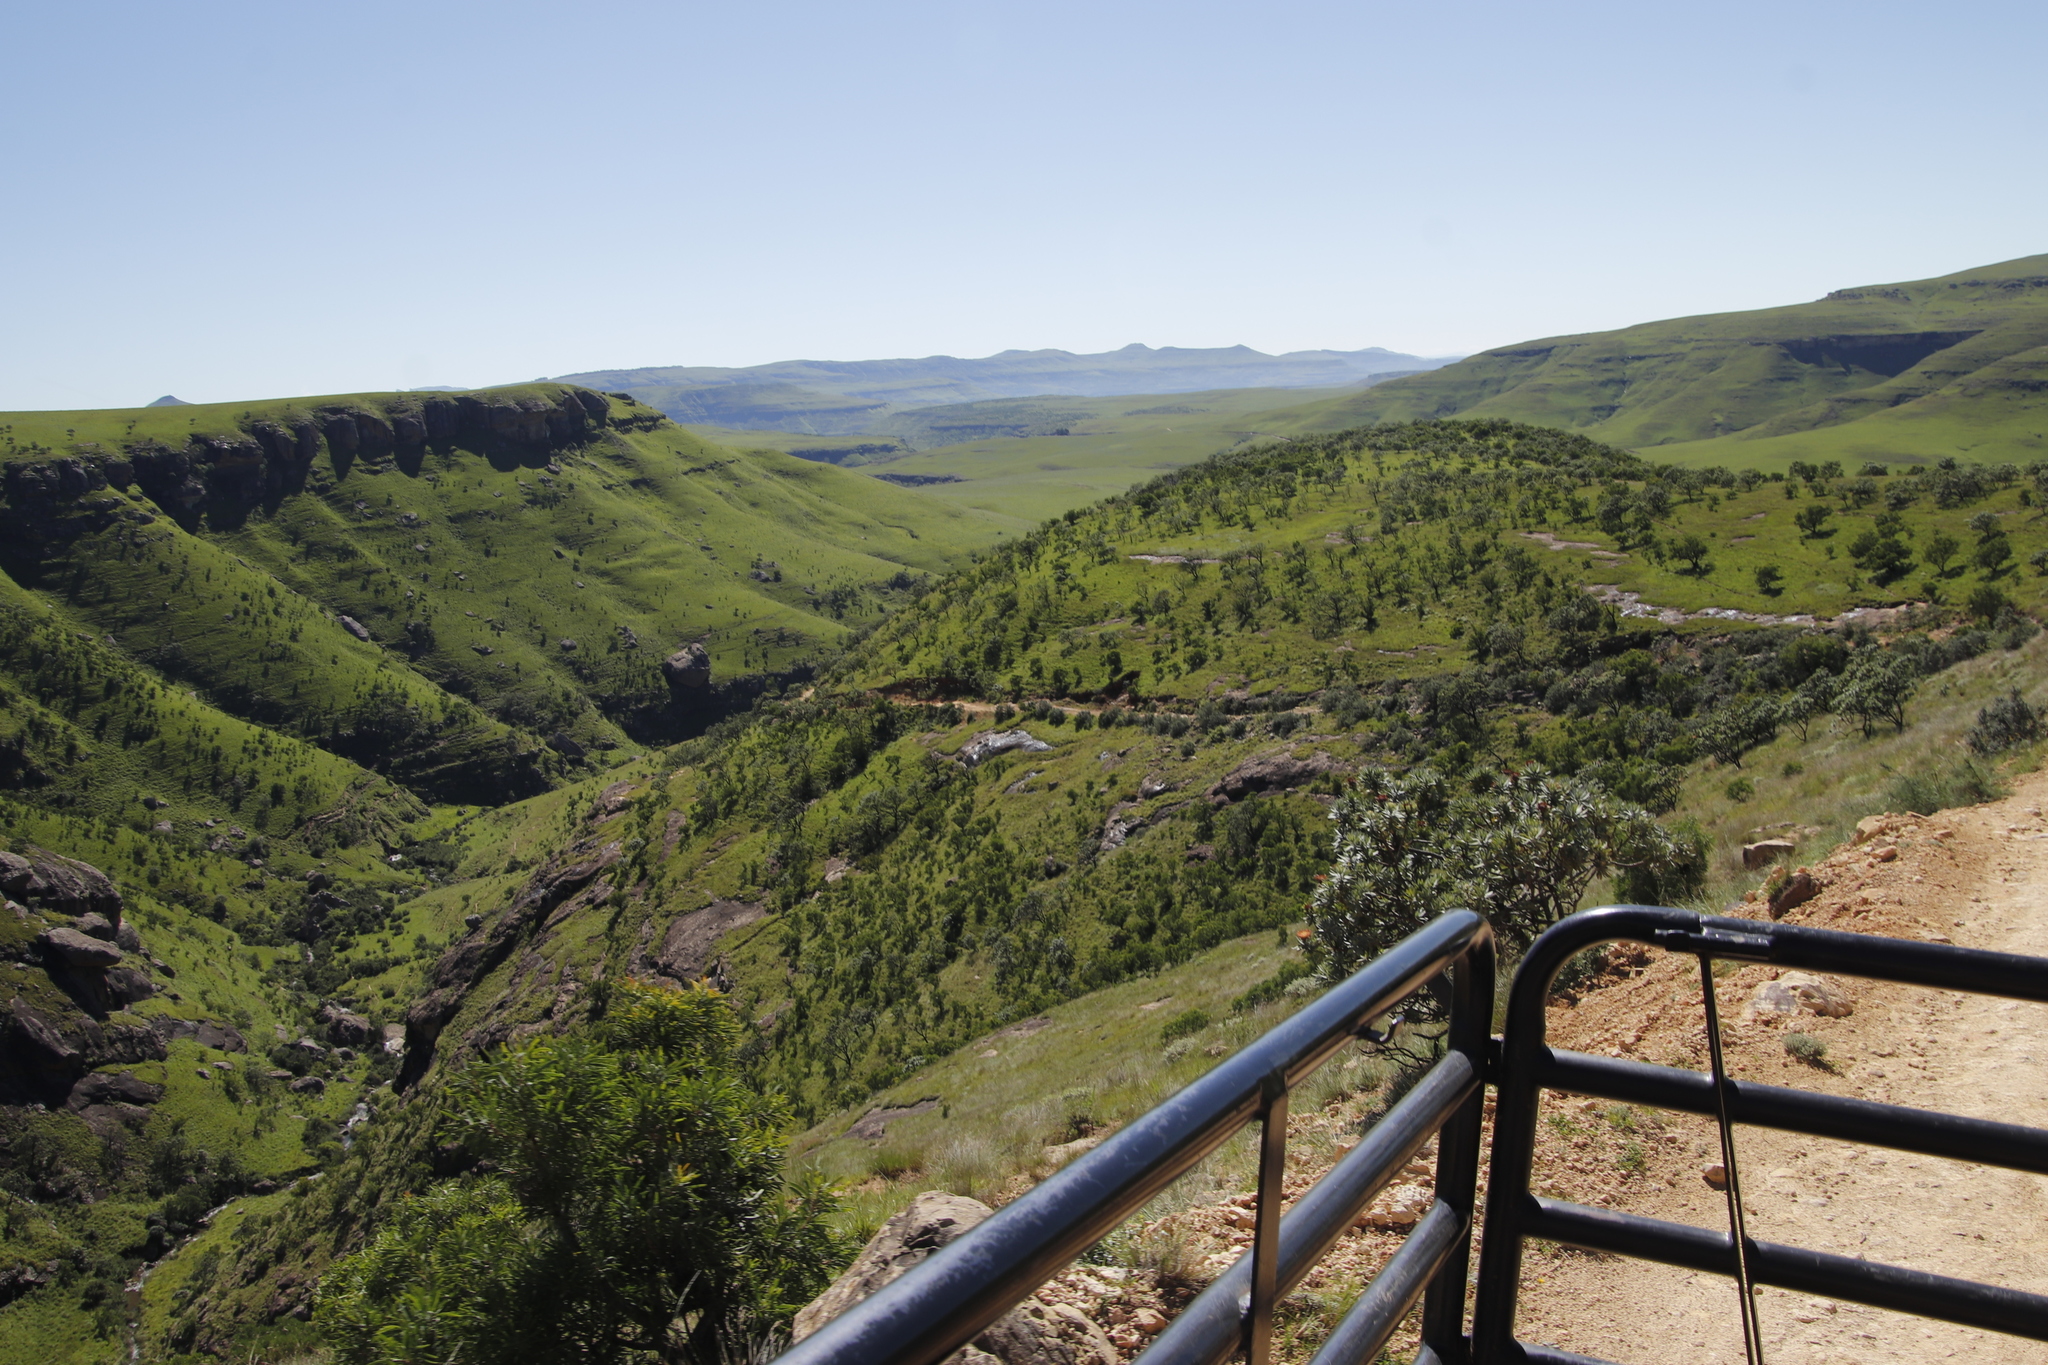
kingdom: Plantae
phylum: Tracheophyta
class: Magnoliopsida
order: Proteales
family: Proteaceae
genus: Protea
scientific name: Protea caffra
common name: Common sugarbush
